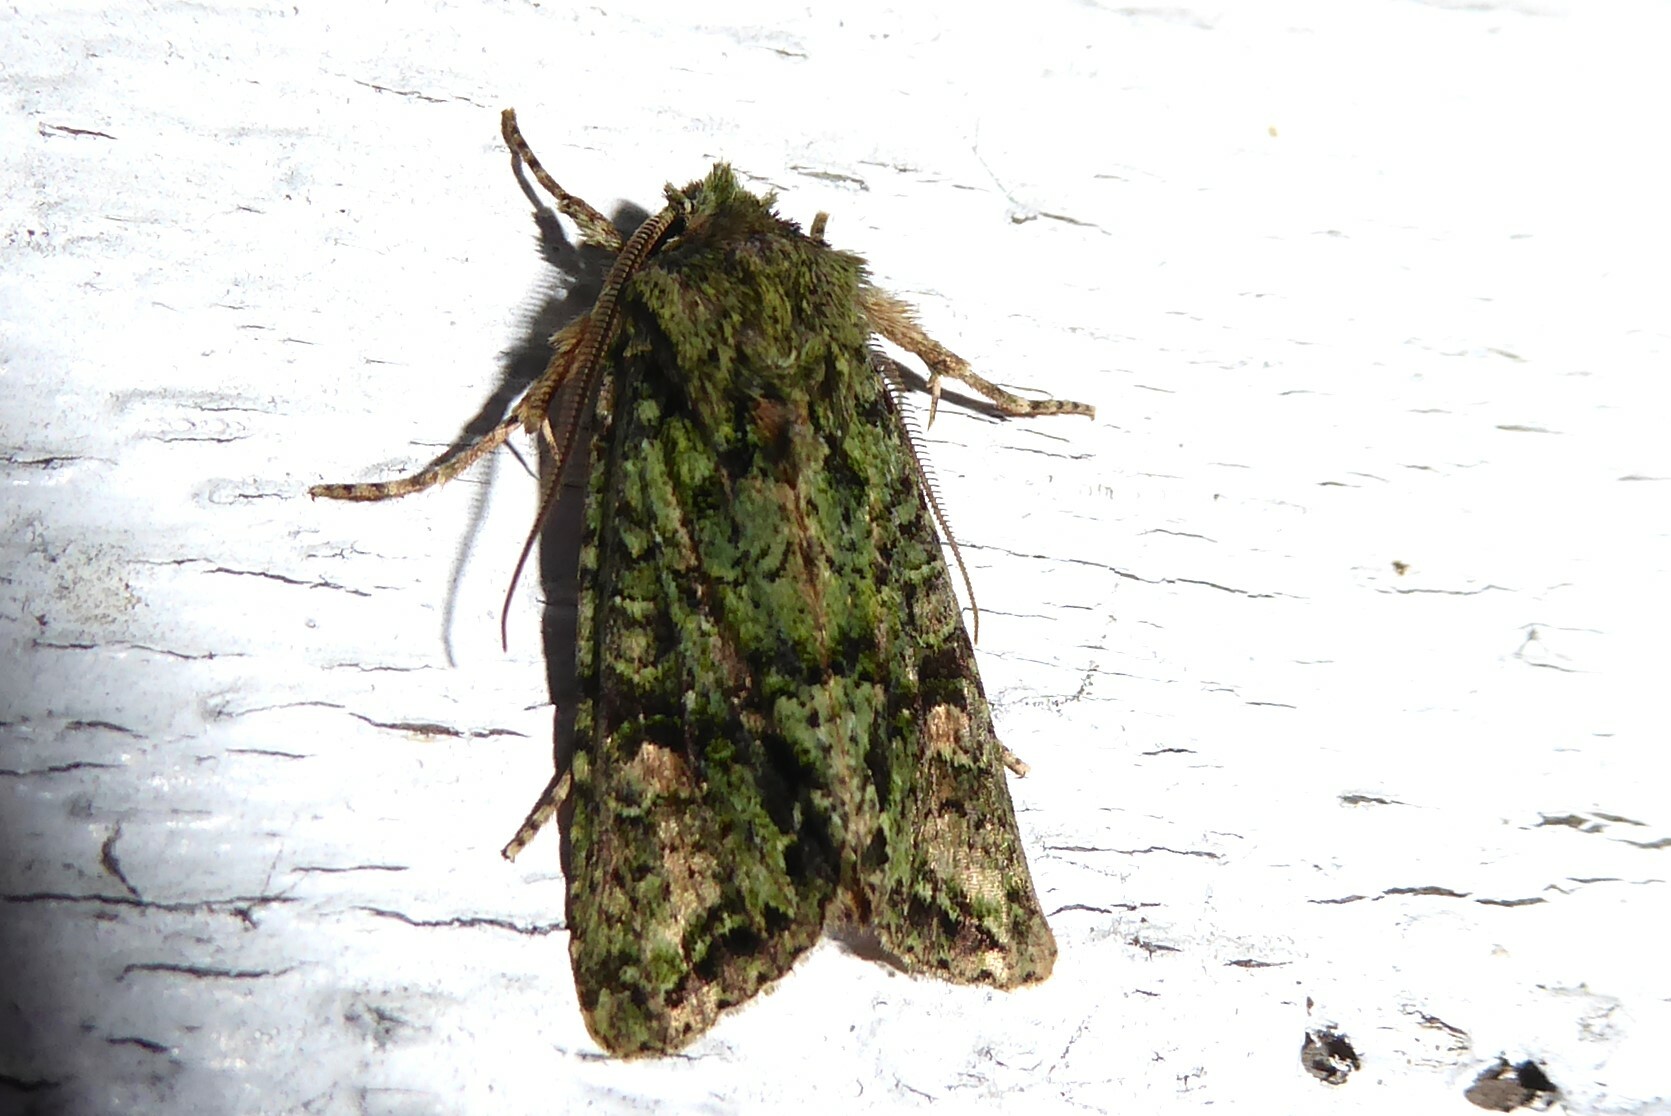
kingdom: Animalia
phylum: Arthropoda
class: Insecta
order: Lepidoptera
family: Noctuidae
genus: Ichneutica
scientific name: Ichneutica
